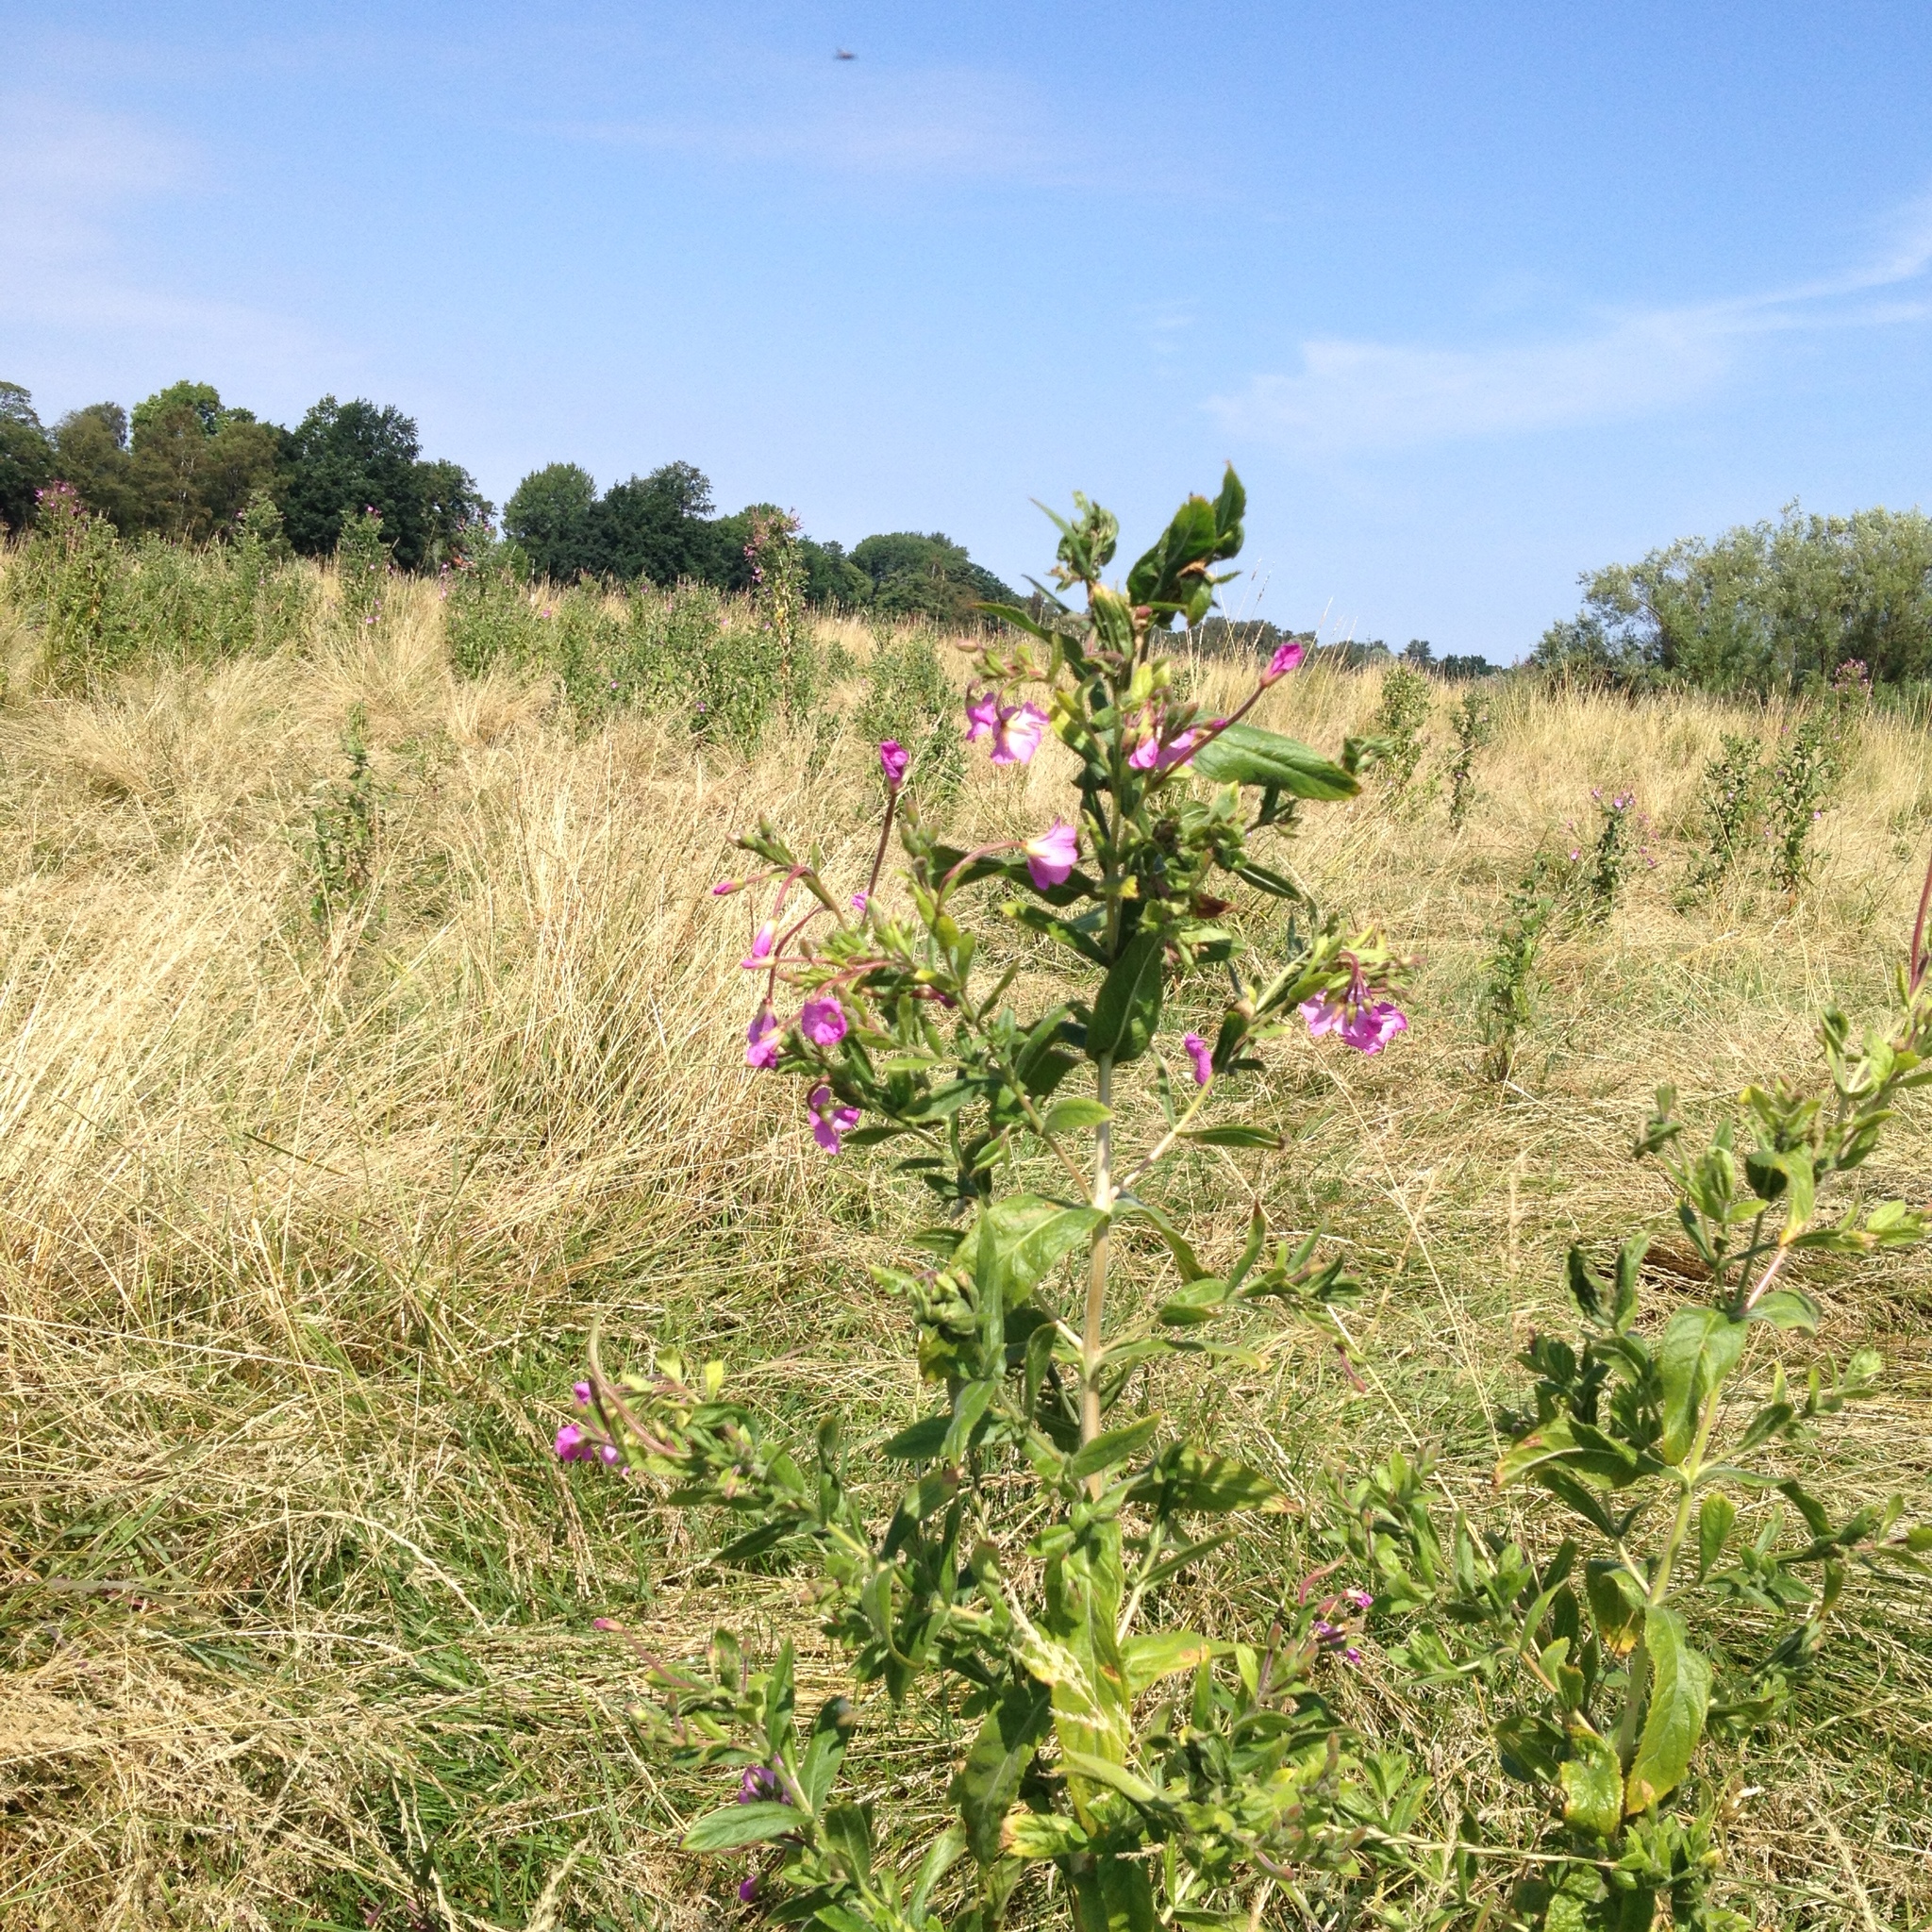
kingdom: Plantae
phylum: Tracheophyta
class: Magnoliopsida
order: Myrtales
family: Onagraceae
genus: Epilobium
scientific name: Epilobium hirsutum
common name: Great willowherb
